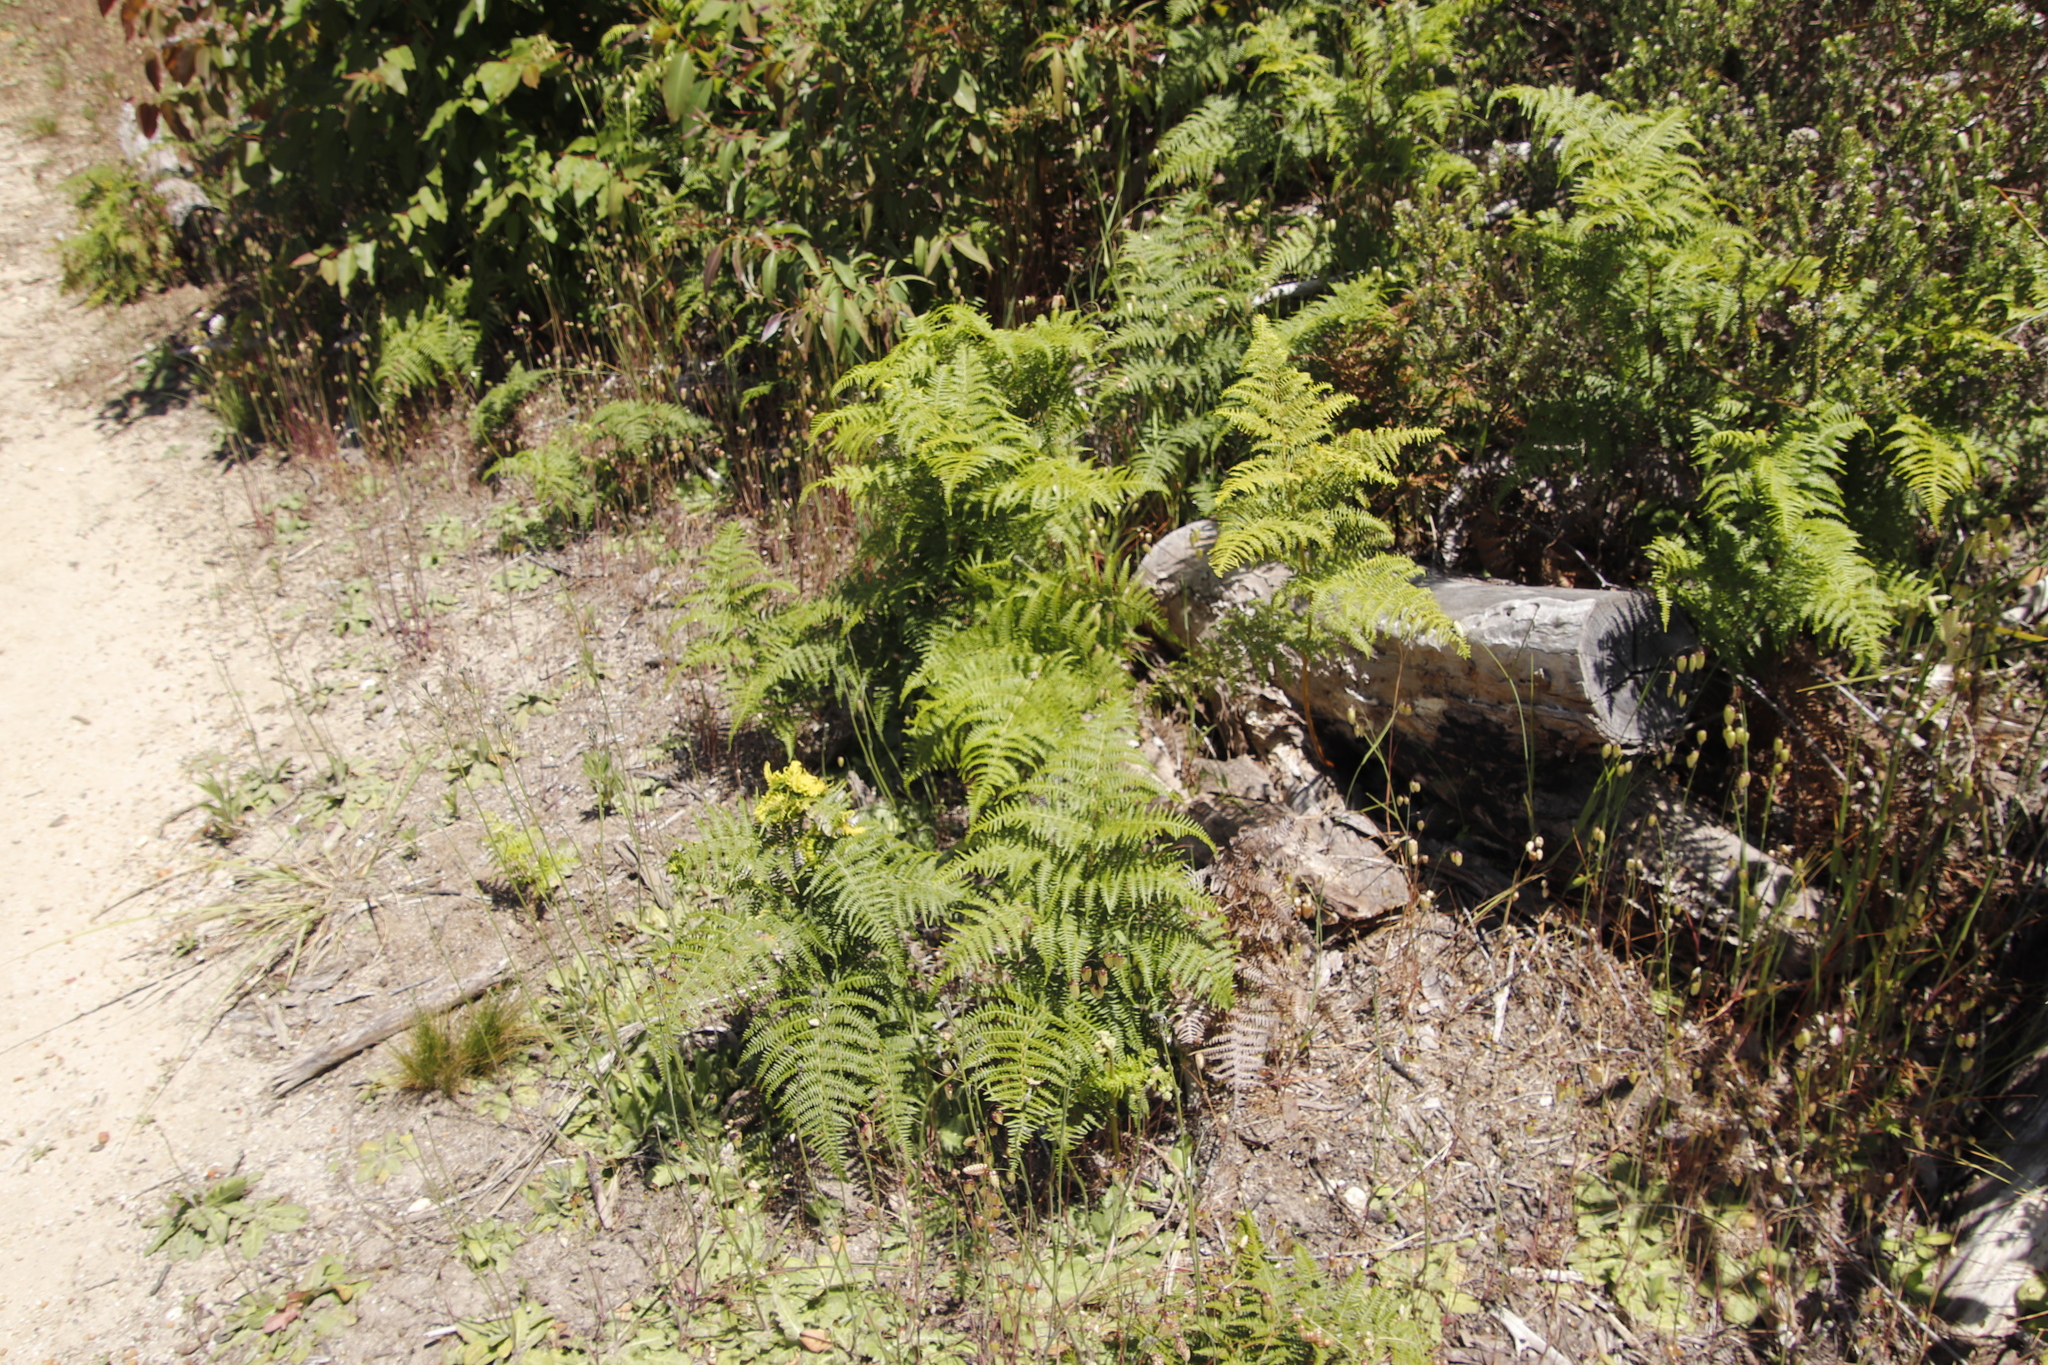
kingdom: Plantae
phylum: Tracheophyta
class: Polypodiopsida
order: Polypodiales
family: Dennstaedtiaceae
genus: Pteridium
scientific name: Pteridium aquilinum
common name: Bracken
